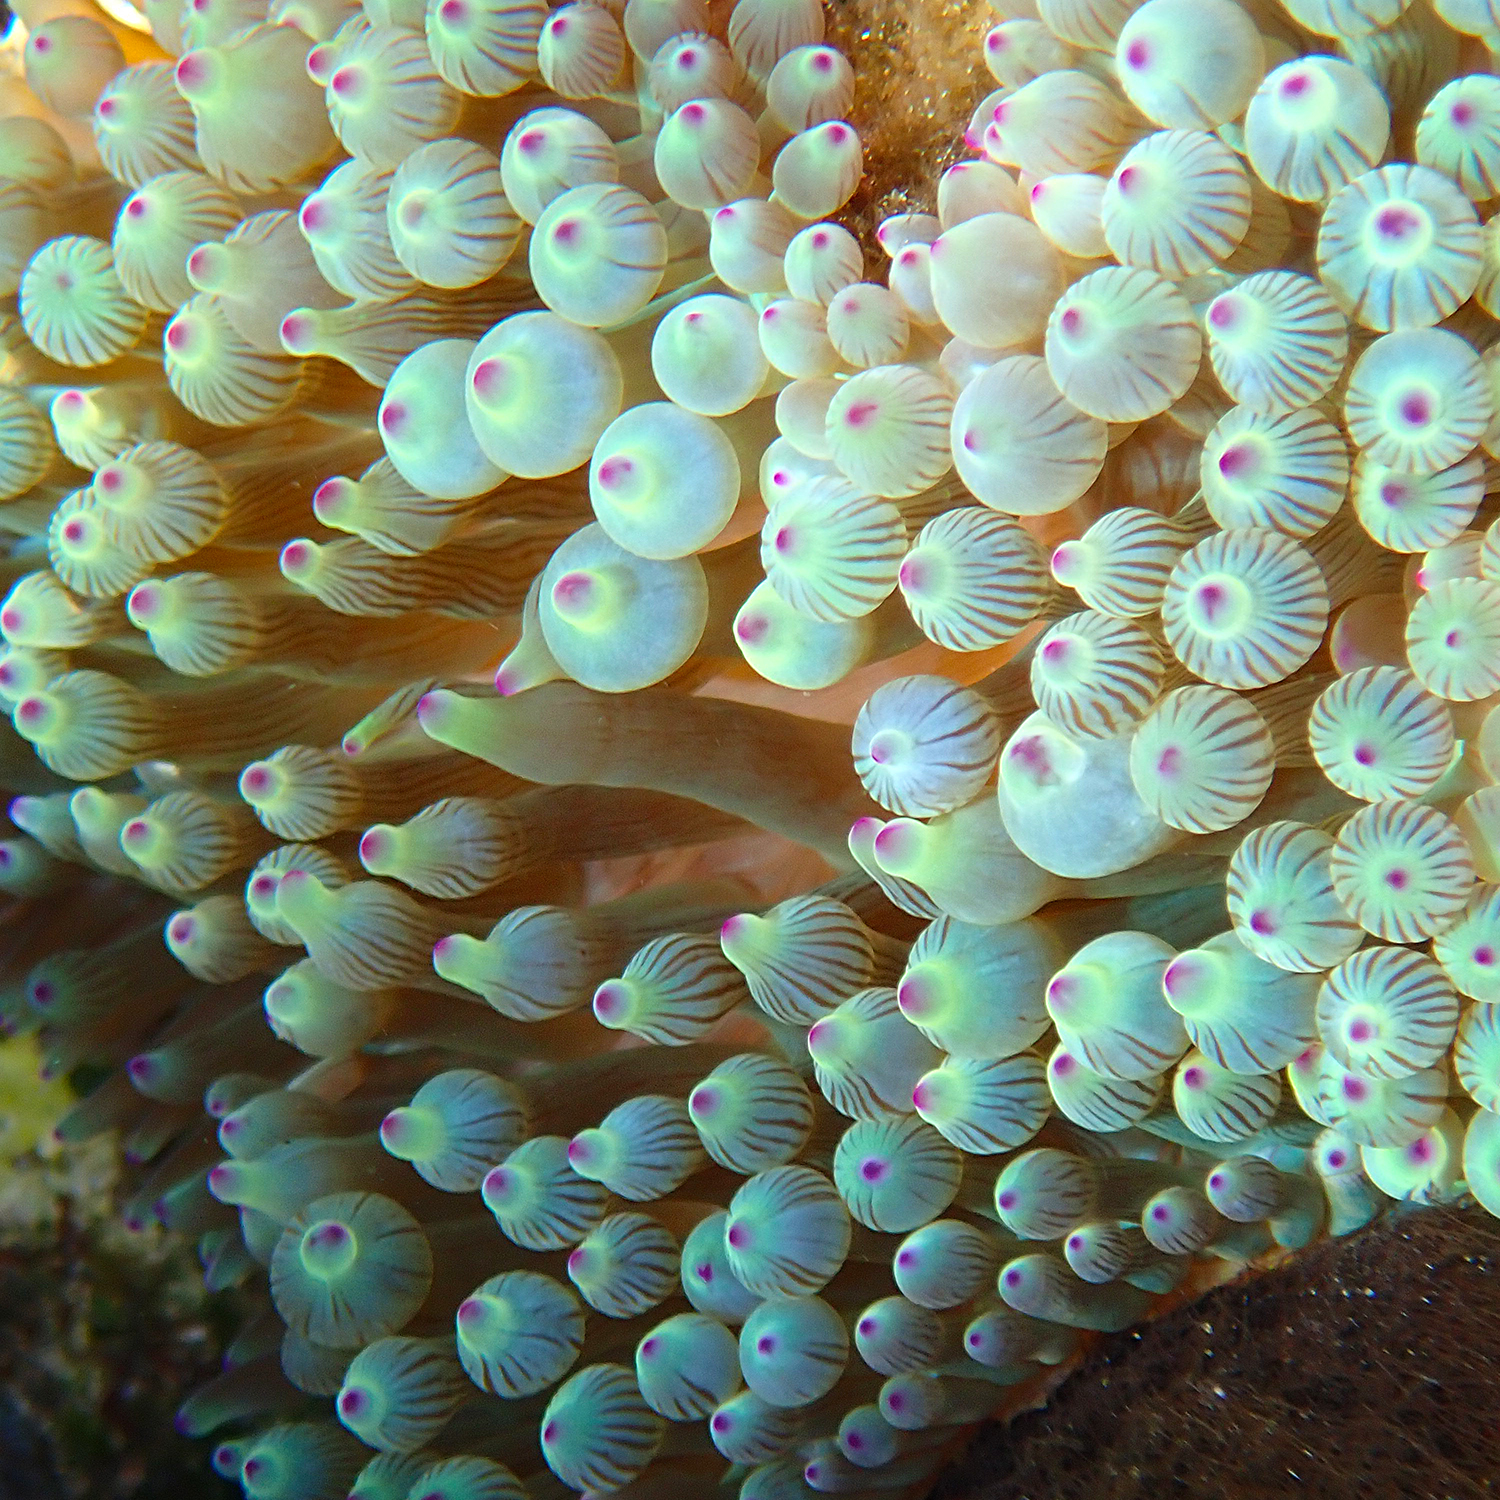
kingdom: Animalia
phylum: Cnidaria
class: Anthozoa
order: Actiniaria
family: Actiniidae
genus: Entacmaea
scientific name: Entacmaea quadricolor
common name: Bulb tentacle sea anemone
